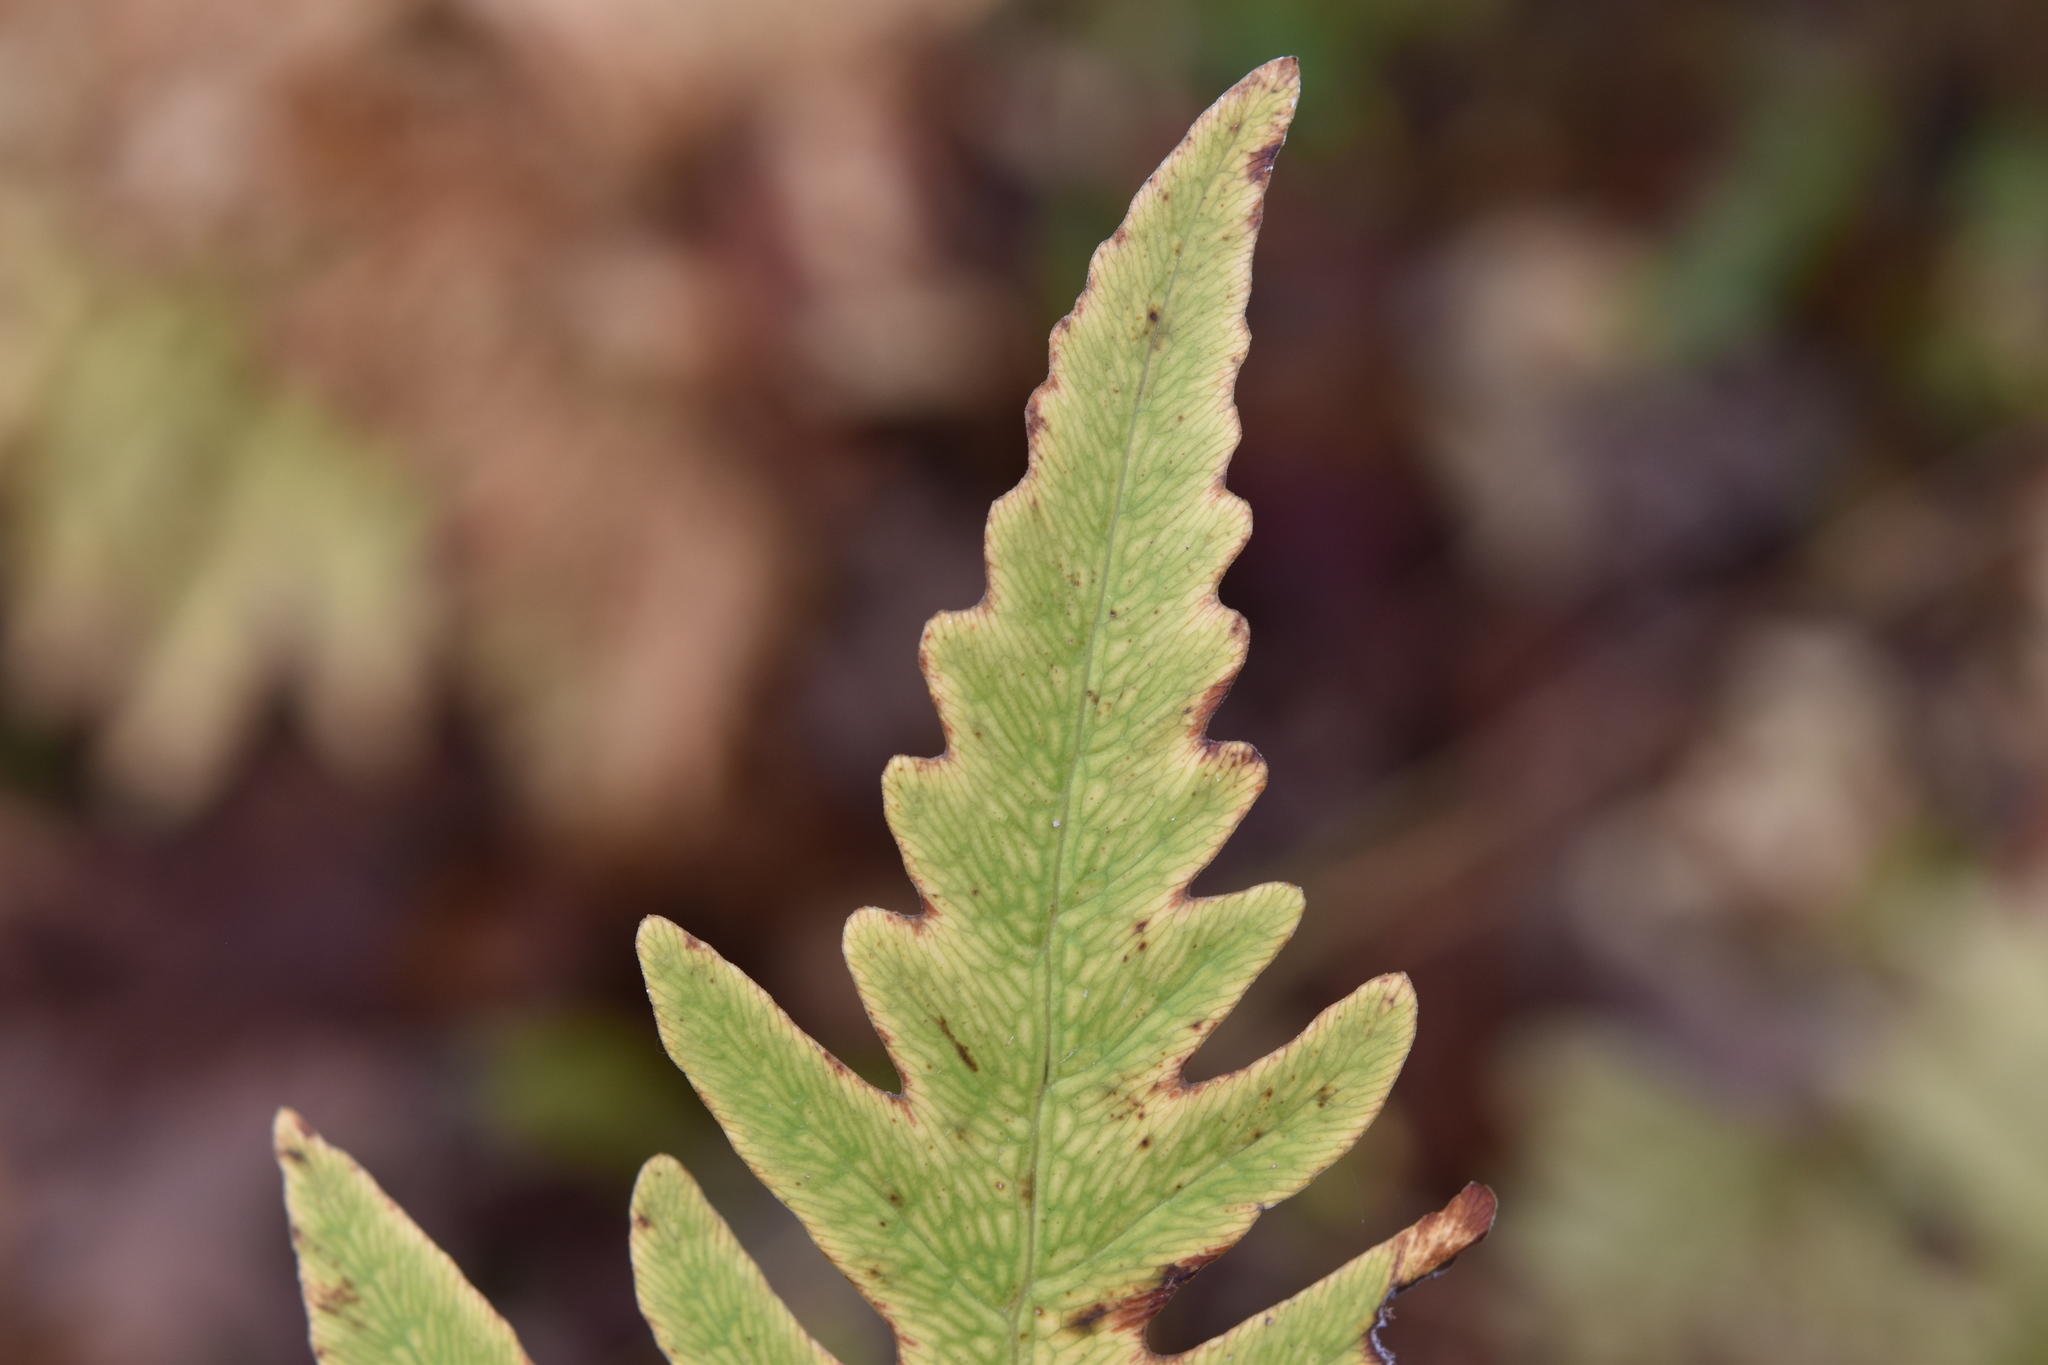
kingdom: Plantae
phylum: Tracheophyta
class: Polypodiopsida
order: Polypodiales
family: Onocleaceae
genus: Onoclea
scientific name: Onoclea sensibilis
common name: Sensitive fern
